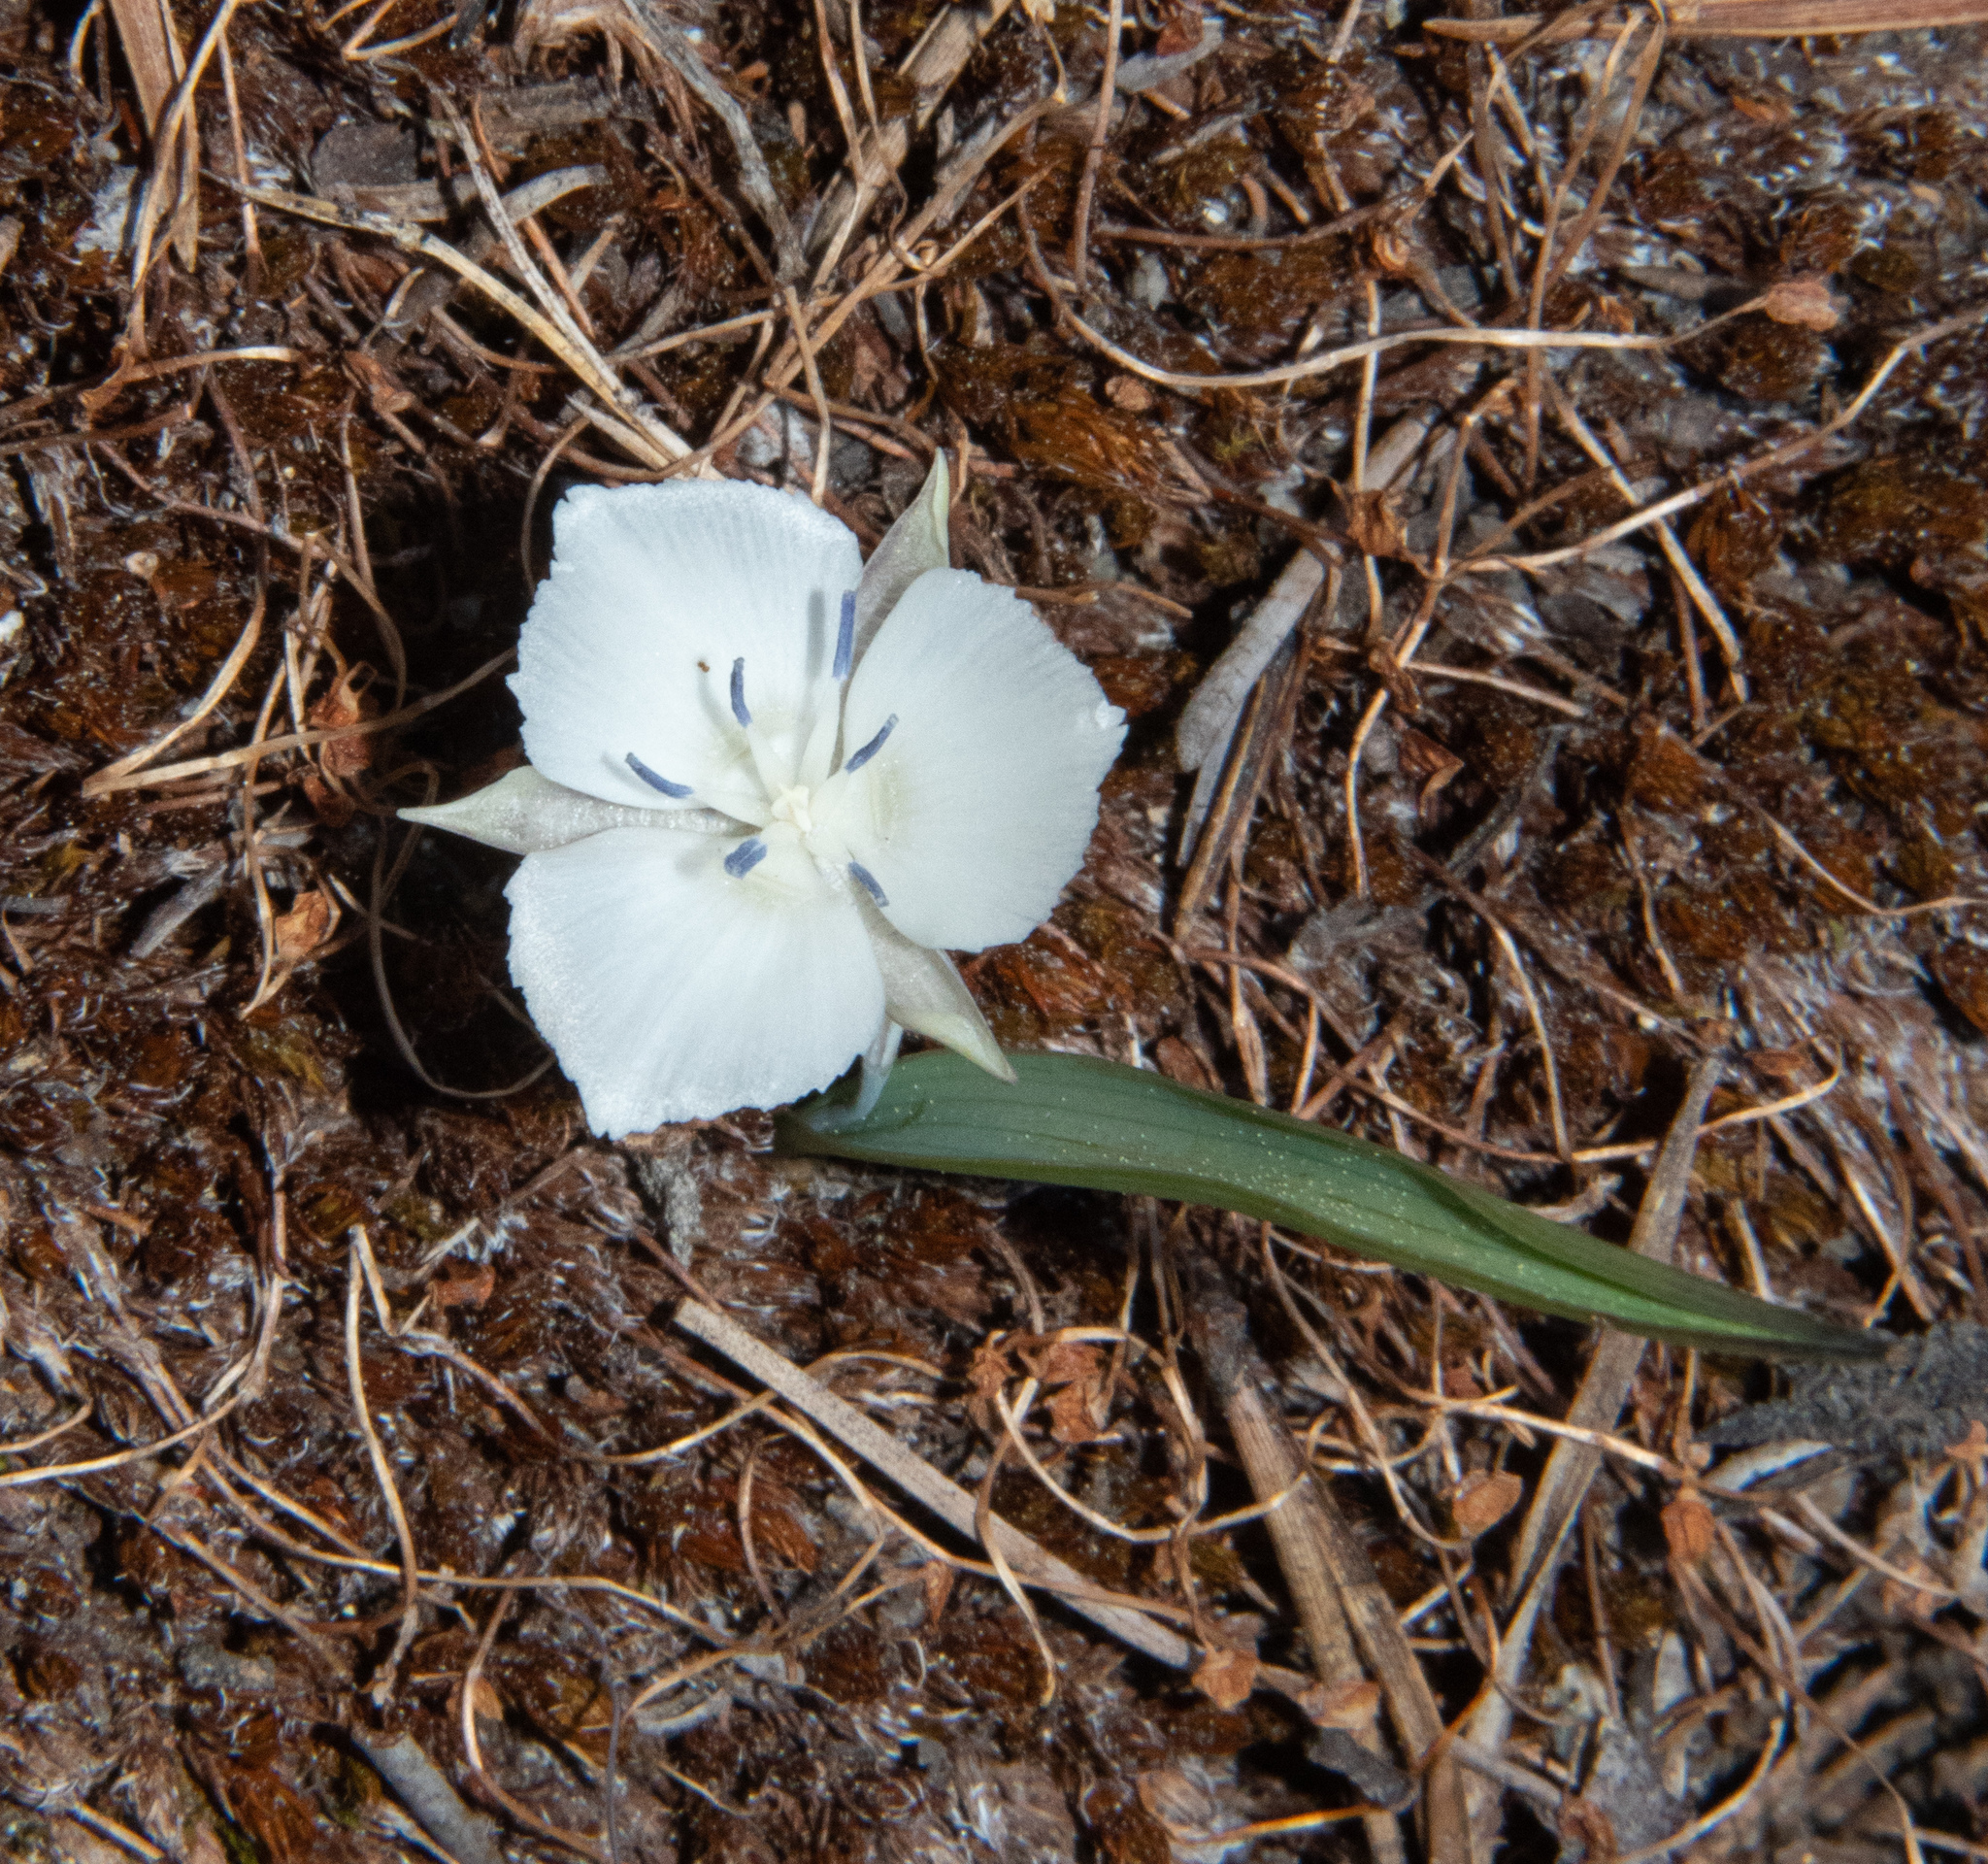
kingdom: Plantae
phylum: Tracheophyta
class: Liliopsida
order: Liliales
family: Liliaceae
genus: Calochortus
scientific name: Calochortus minimus
